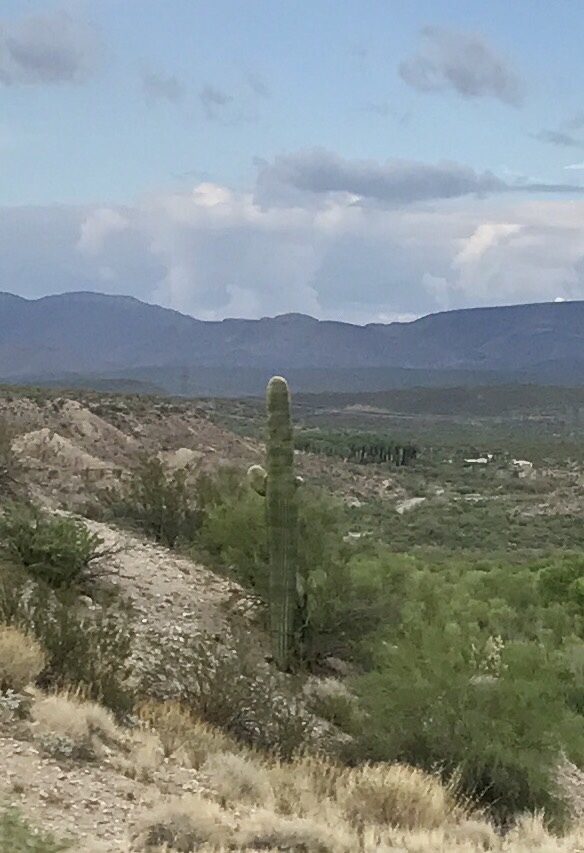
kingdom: Plantae
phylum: Tracheophyta
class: Magnoliopsida
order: Caryophyllales
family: Cactaceae
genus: Carnegiea
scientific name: Carnegiea gigantea
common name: Saguaro
